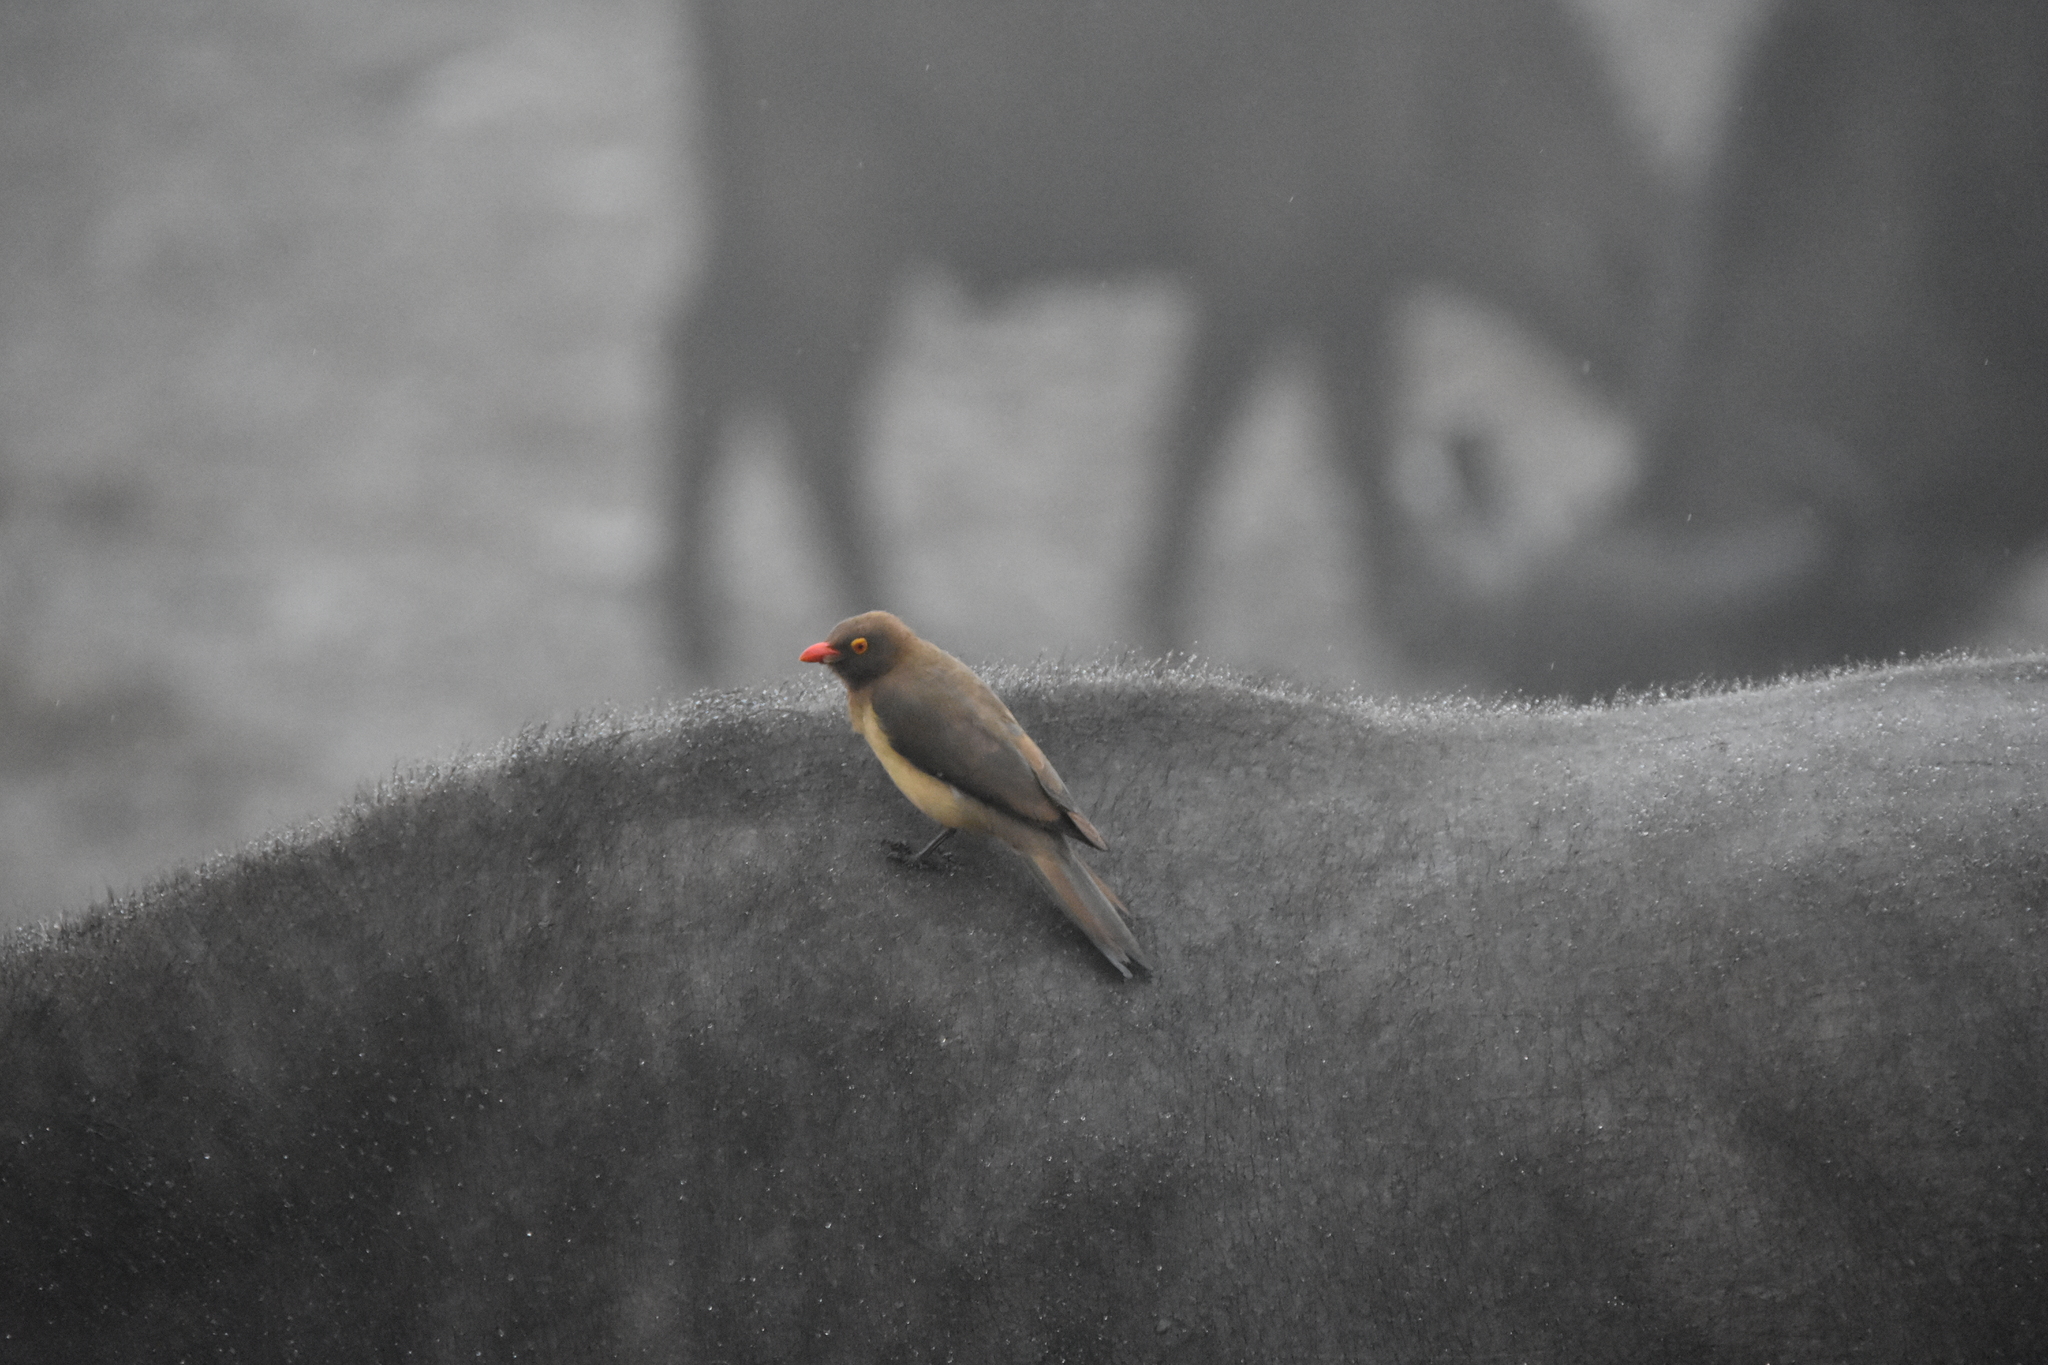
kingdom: Animalia
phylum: Chordata
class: Aves
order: Passeriformes
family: Buphagidae
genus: Buphagus
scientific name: Buphagus erythrorhynchus
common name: Red-billed oxpecker
